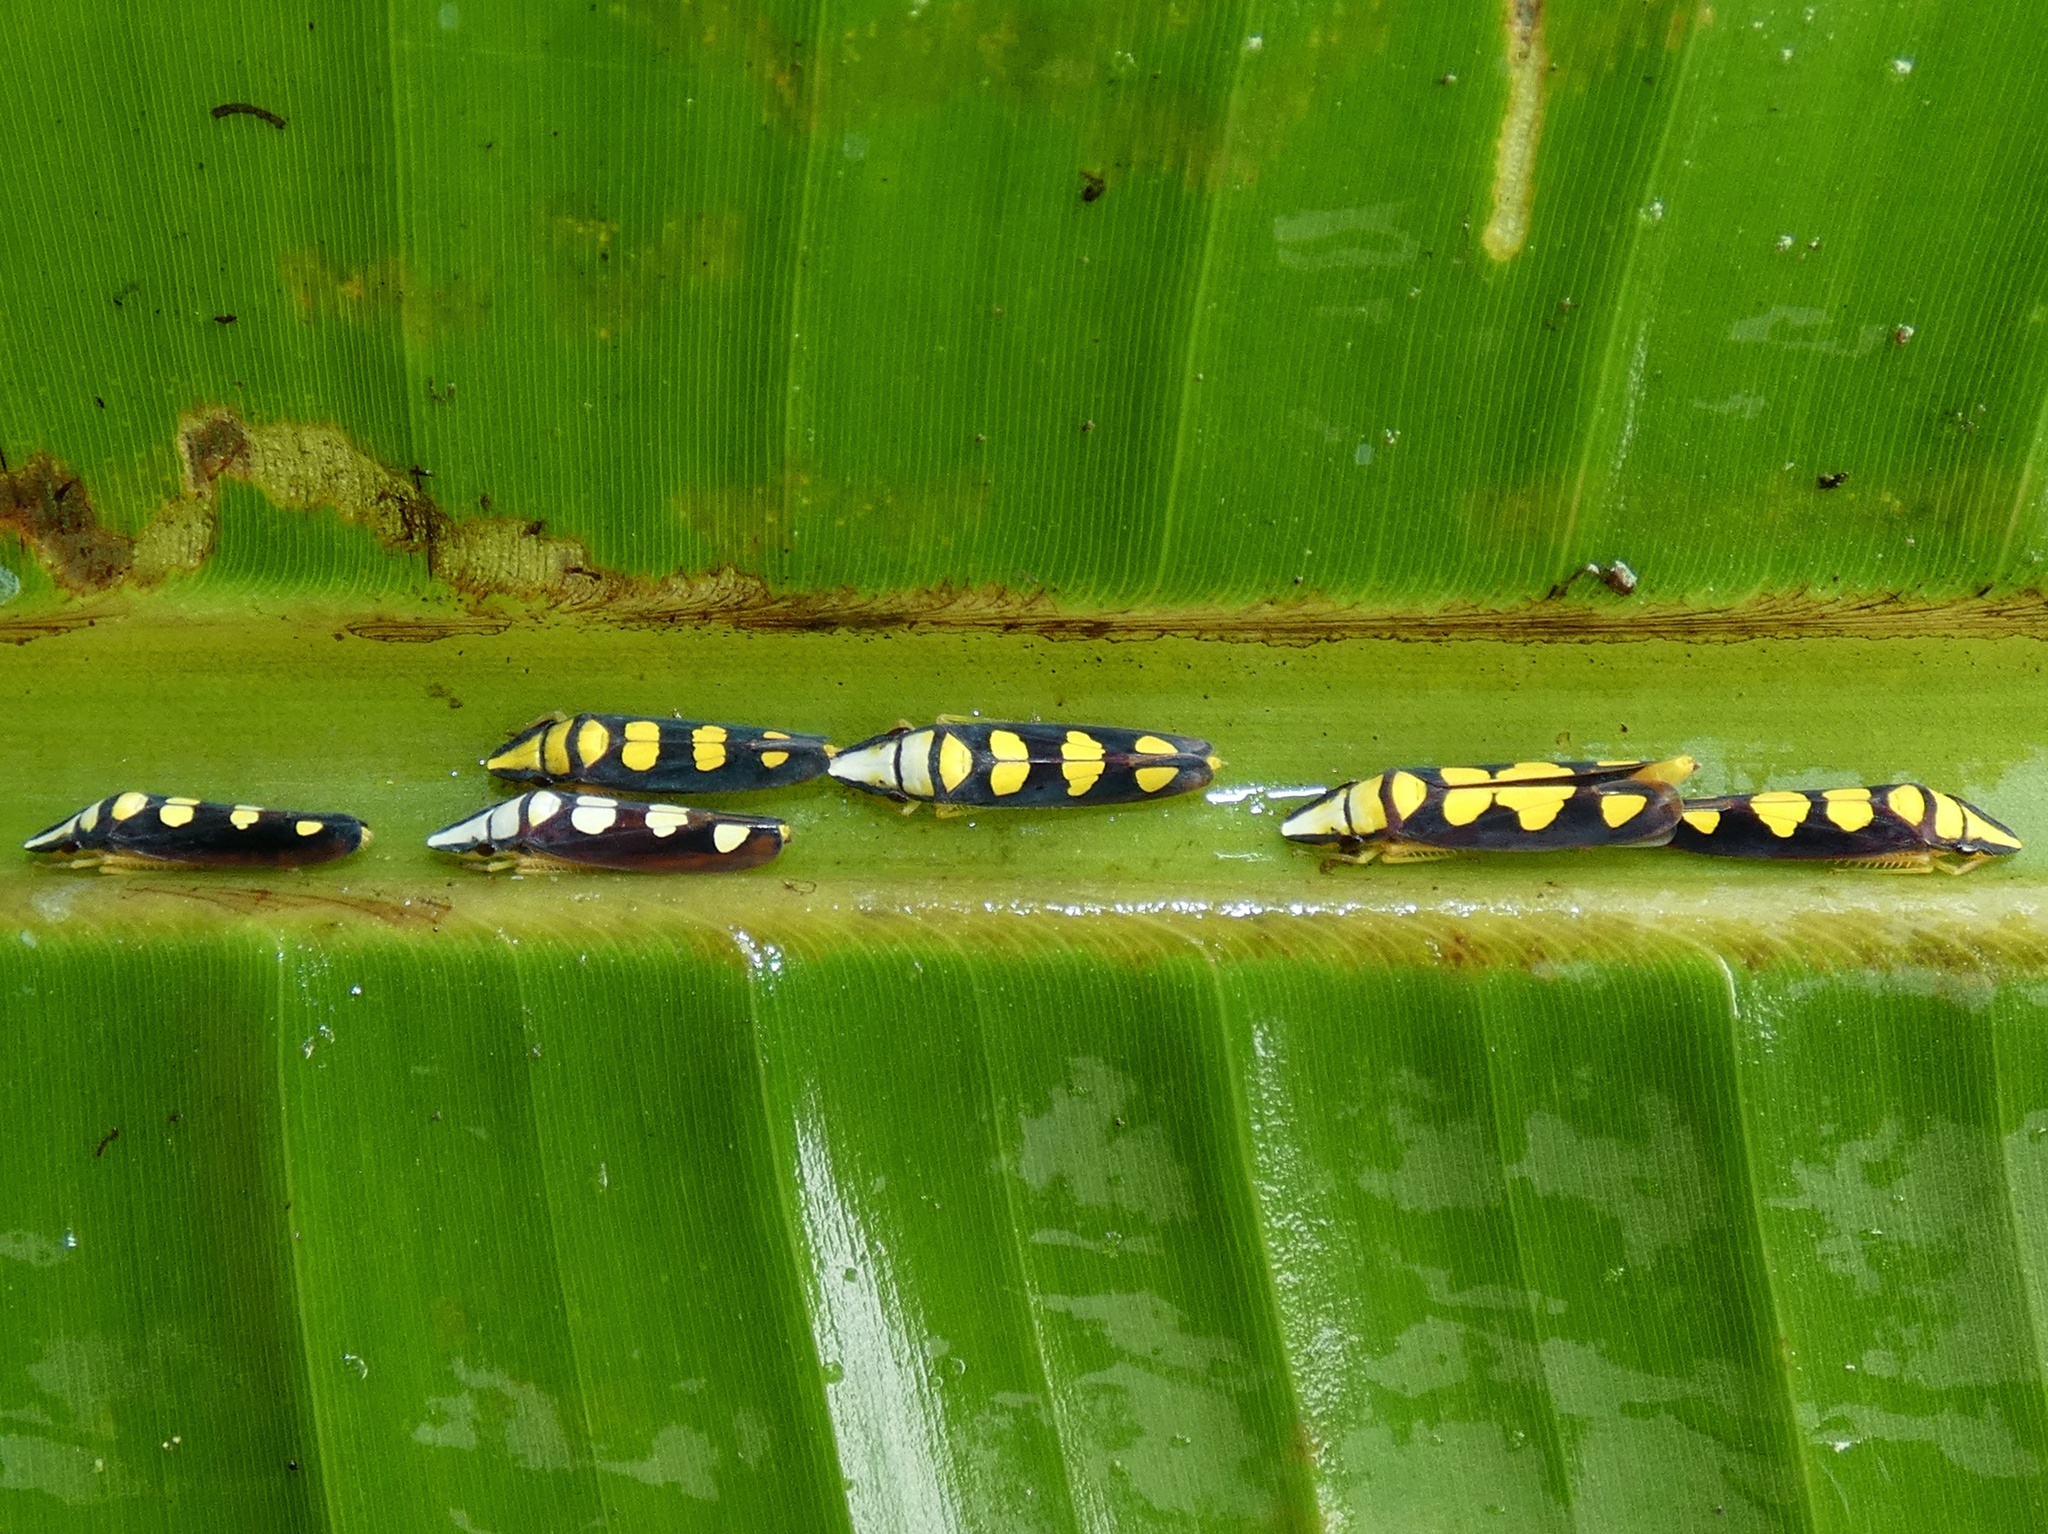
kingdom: Animalia
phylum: Arthropoda
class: Insecta
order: Hemiptera
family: Cicadellidae
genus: Platygonia
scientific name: Platygonia spatulata
